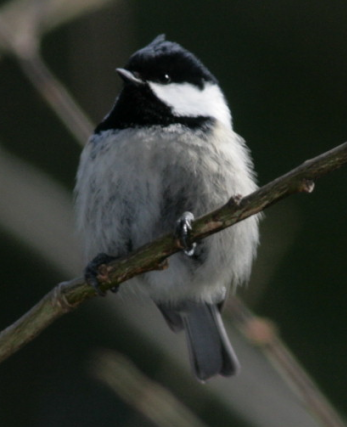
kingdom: Animalia
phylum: Chordata
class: Aves
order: Passeriformes
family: Paridae
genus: Periparus
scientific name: Periparus ater
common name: Coal tit
